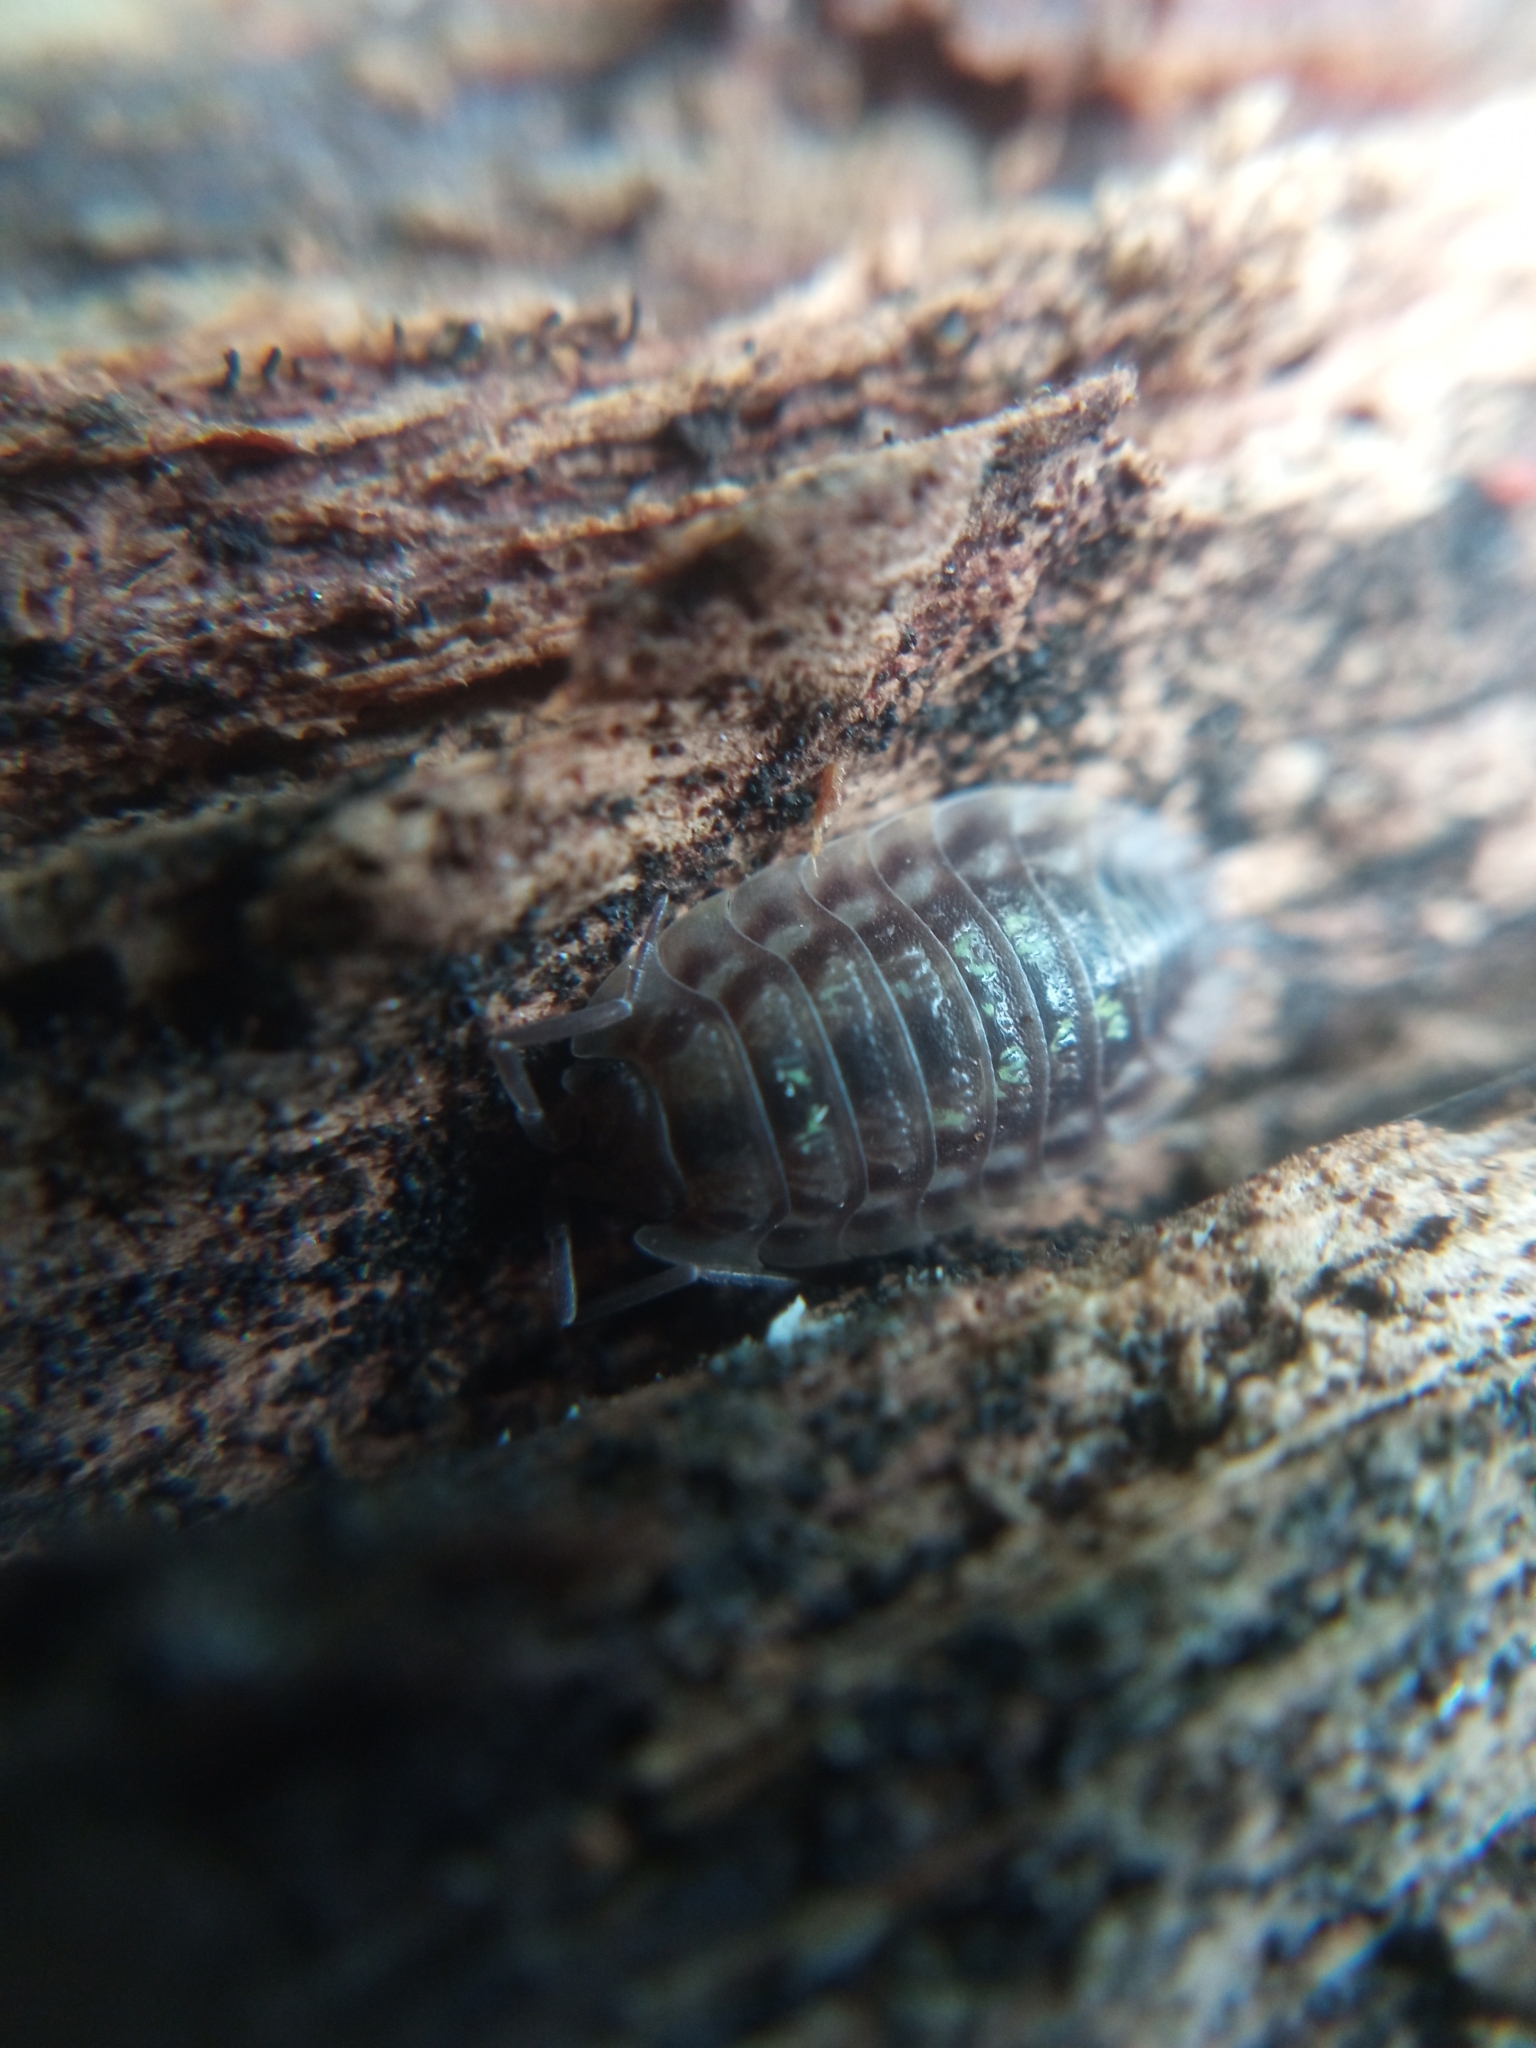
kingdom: Animalia
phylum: Arthropoda
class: Malacostraca
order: Isopoda
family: Oniscidae
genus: Oniscus
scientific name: Oniscus asellus
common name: Common shiny woodlouse
